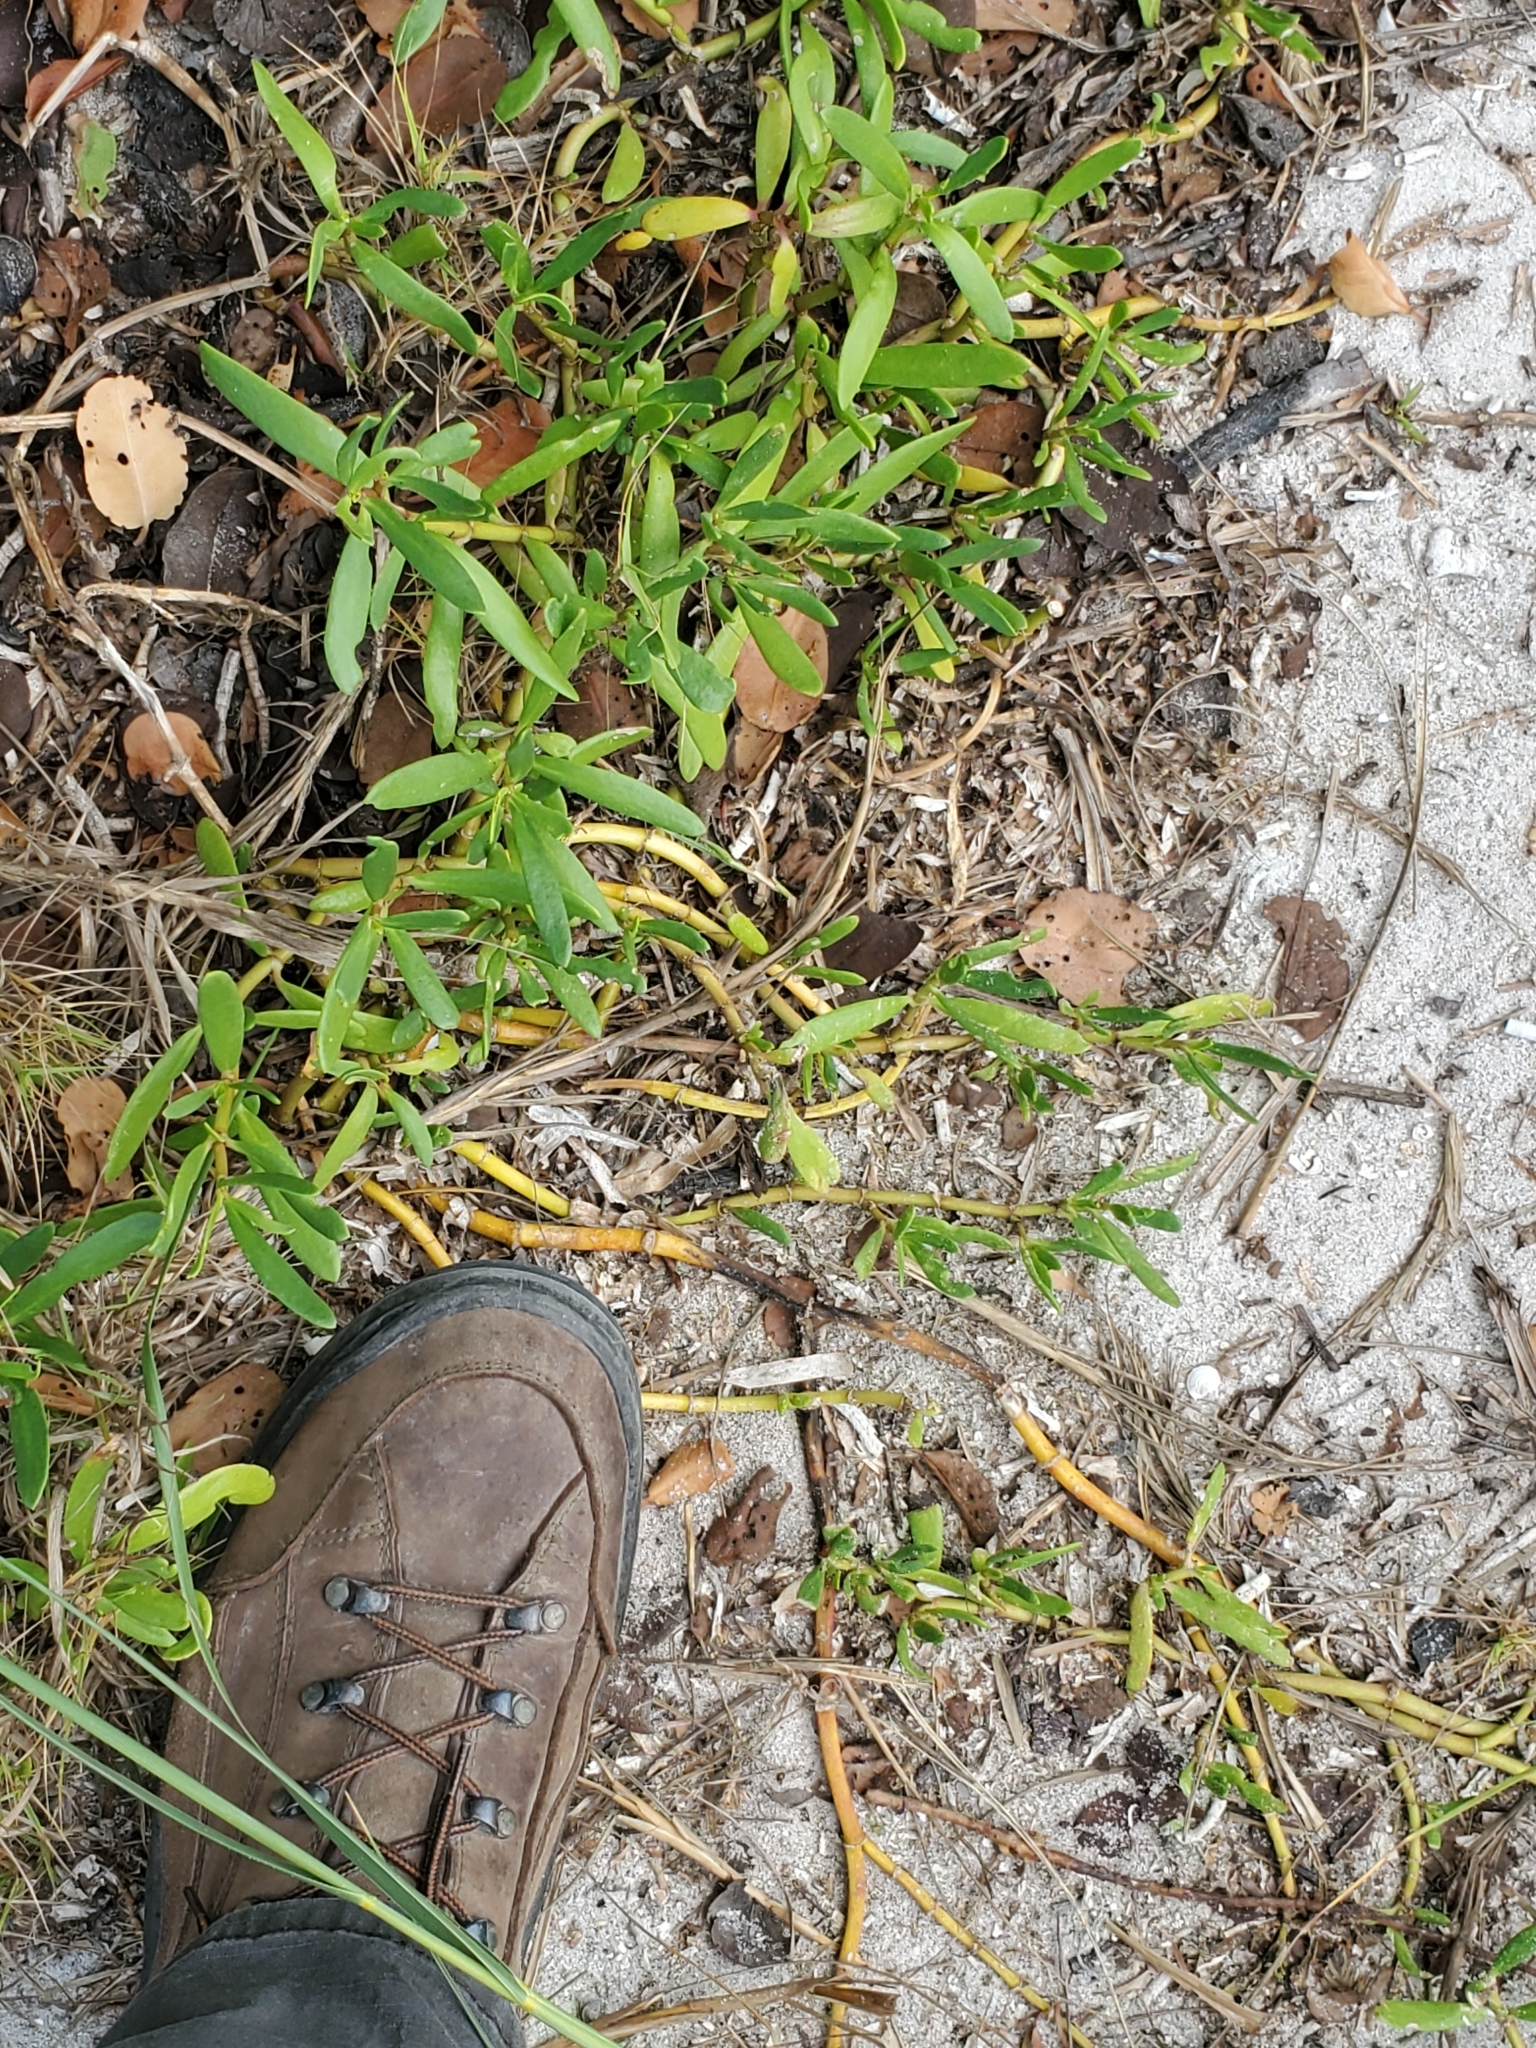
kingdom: Plantae
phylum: Tracheophyta
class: Magnoliopsida
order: Caryophyllales
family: Aizoaceae
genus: Sesuvium
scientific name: Sesuvium portulacastrum
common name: Sea-purslane
